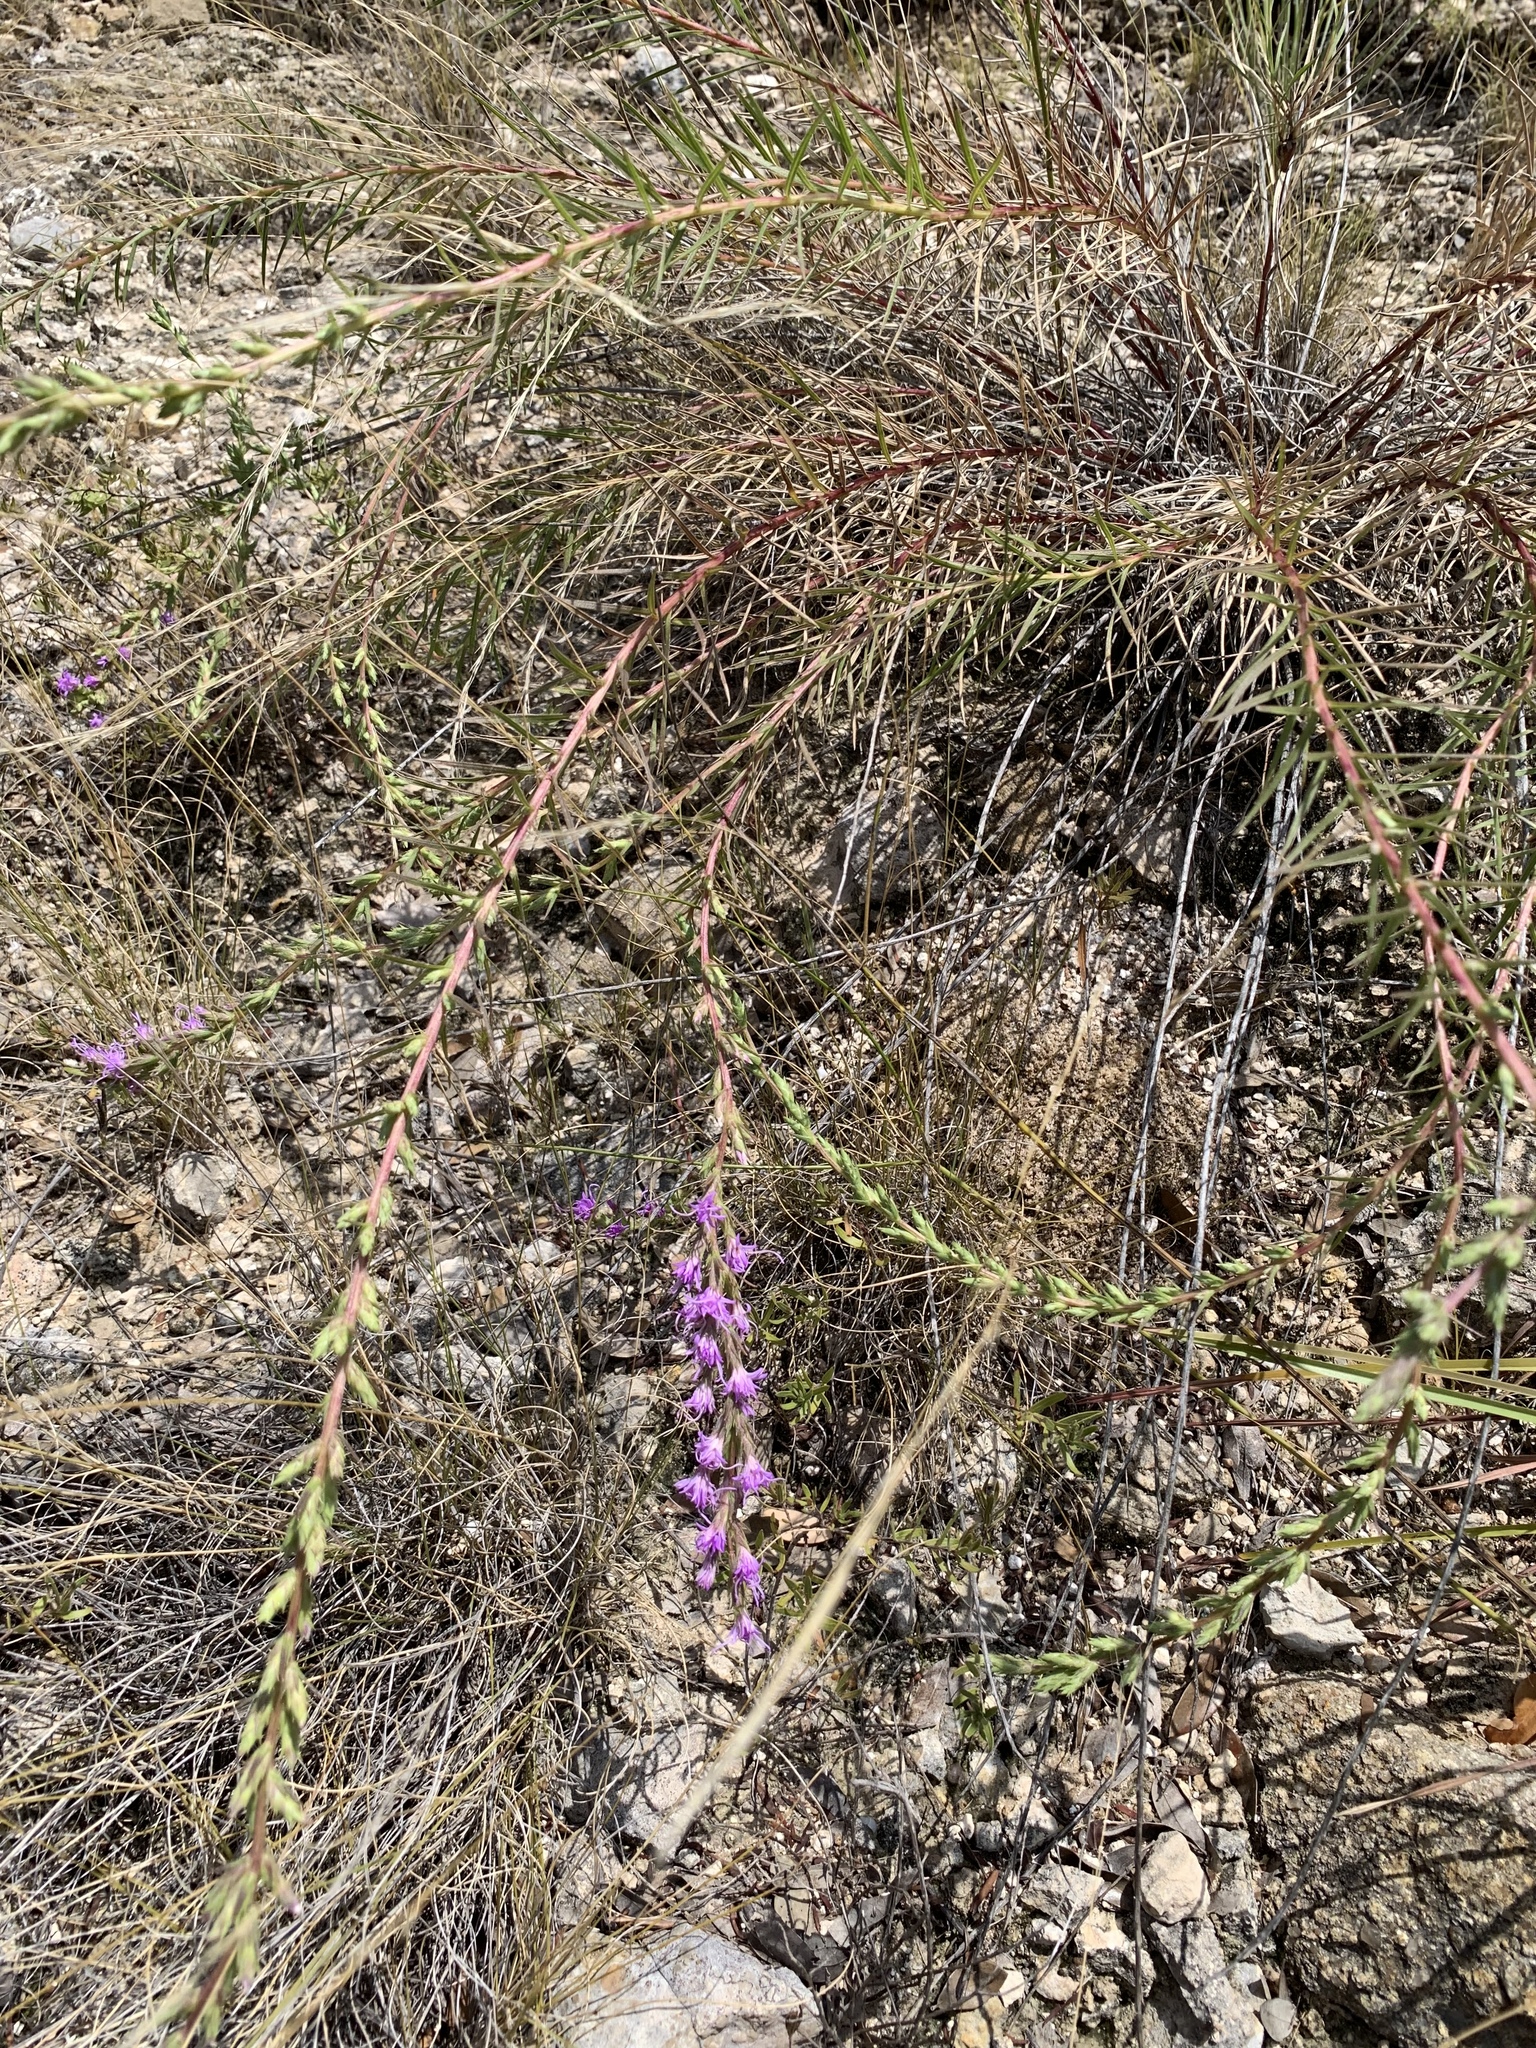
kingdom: Plantae
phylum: Tracheophyta
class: Magnoliopsida
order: Asterales
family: Asteraceae
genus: Liatris
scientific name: Liatris punctata
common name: Dotted gayfeather
